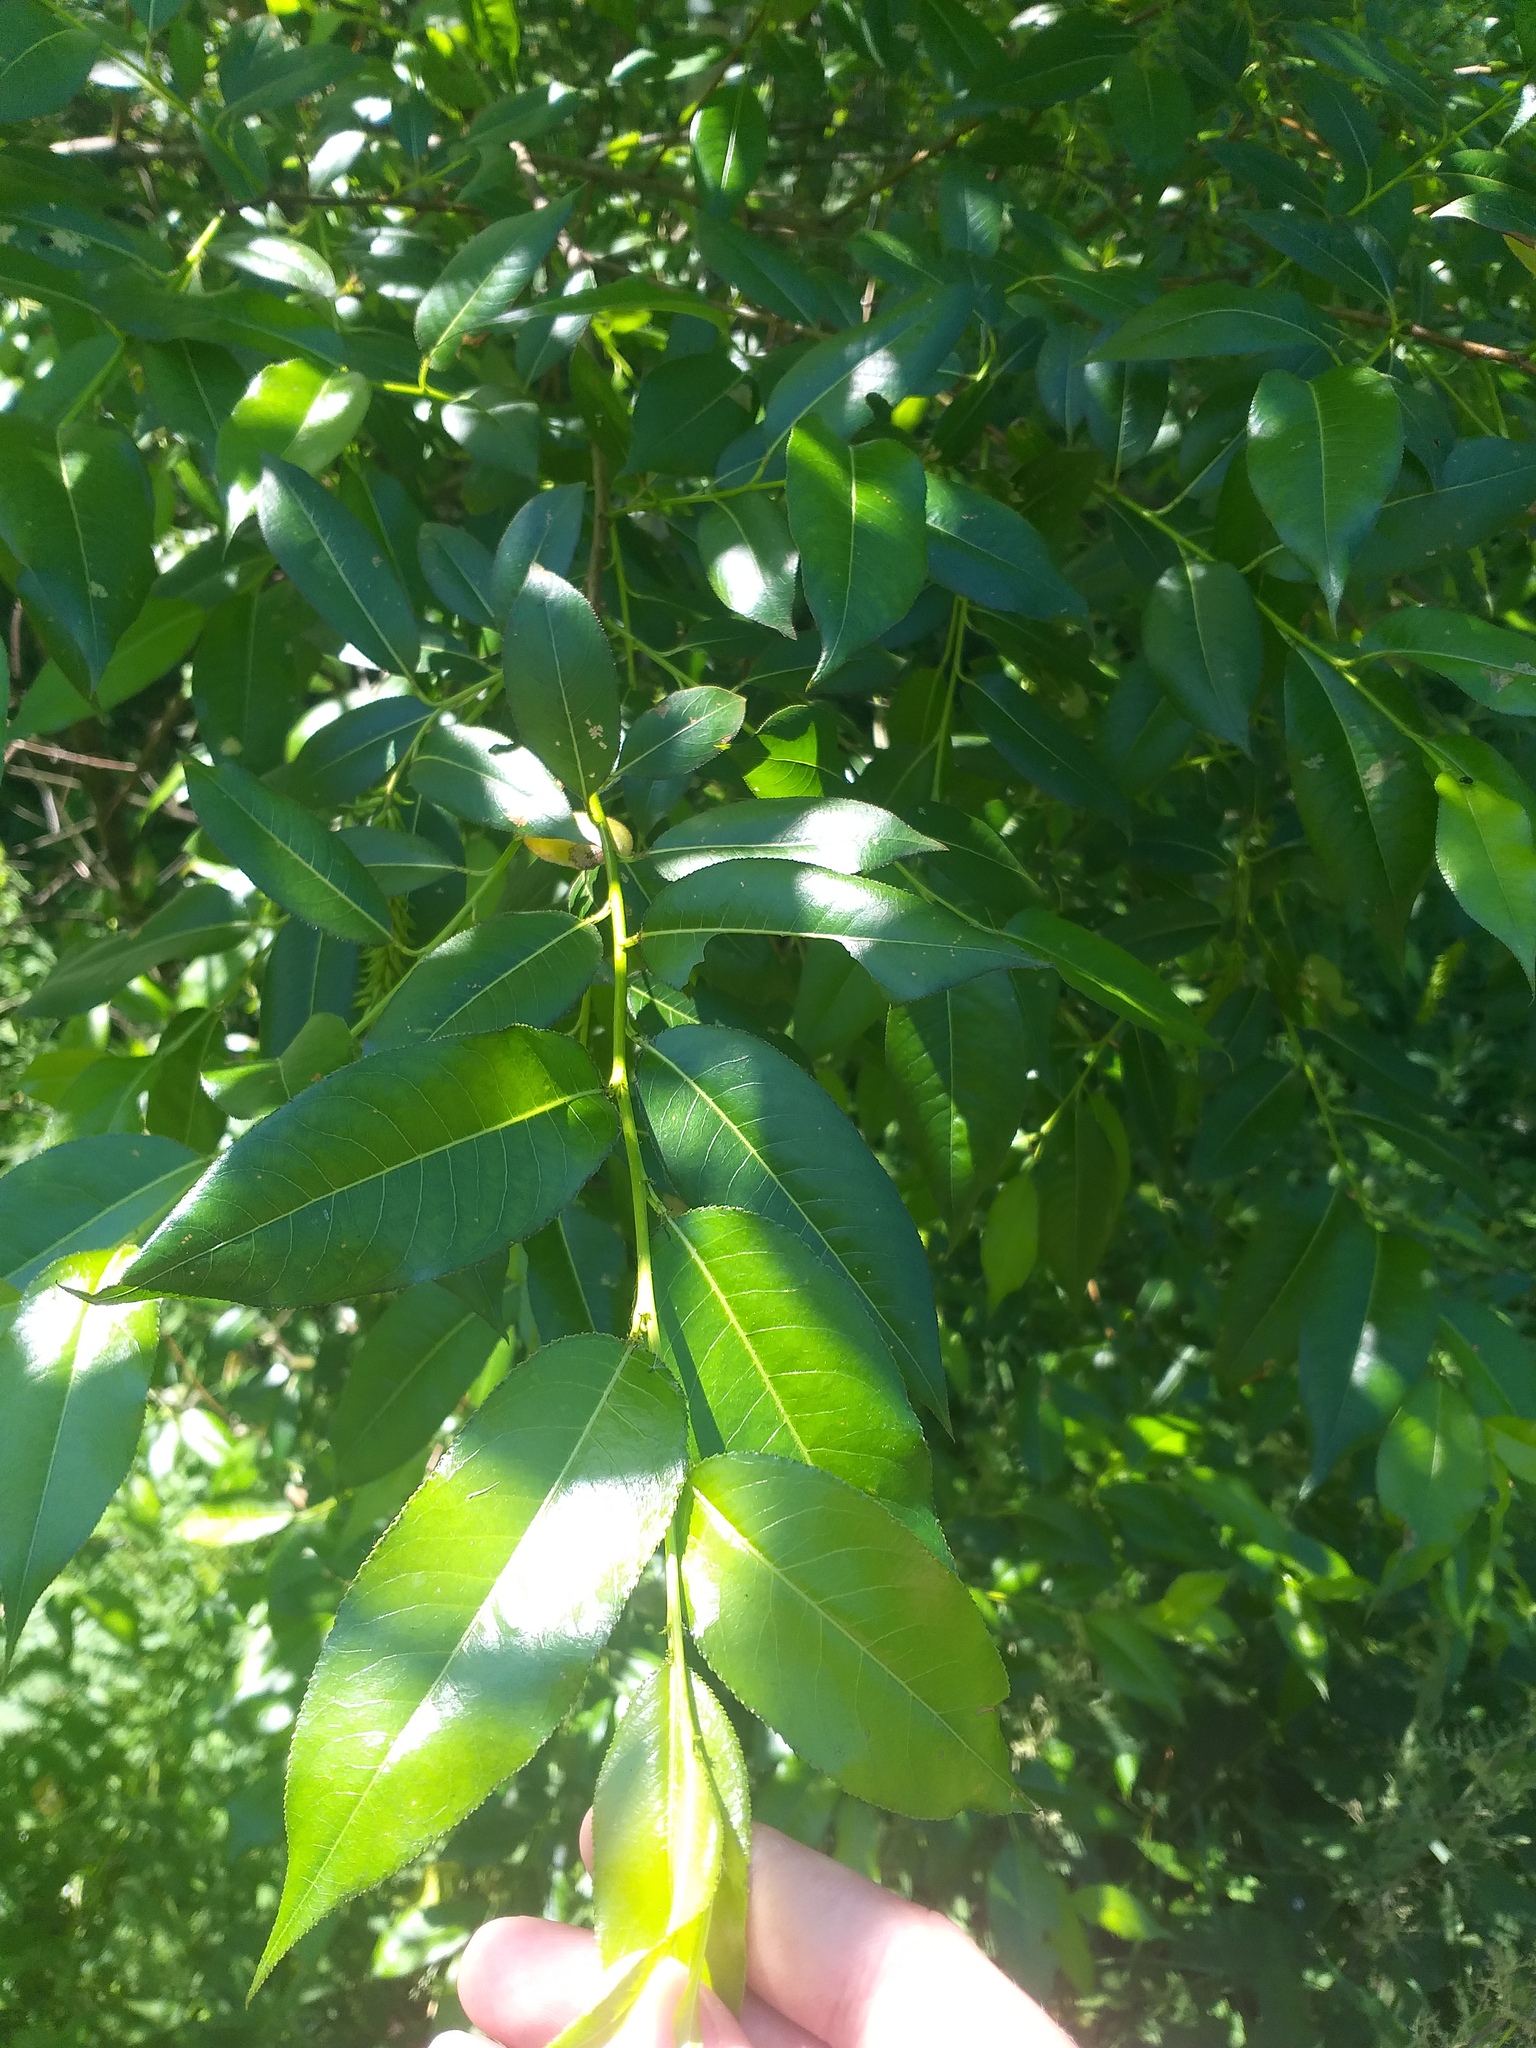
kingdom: Plantae
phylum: Tracheophyta
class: Magnoliopsida
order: Malpighiales
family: Salicaceae
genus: Salix
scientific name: Salix pentandra
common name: Bay willow
